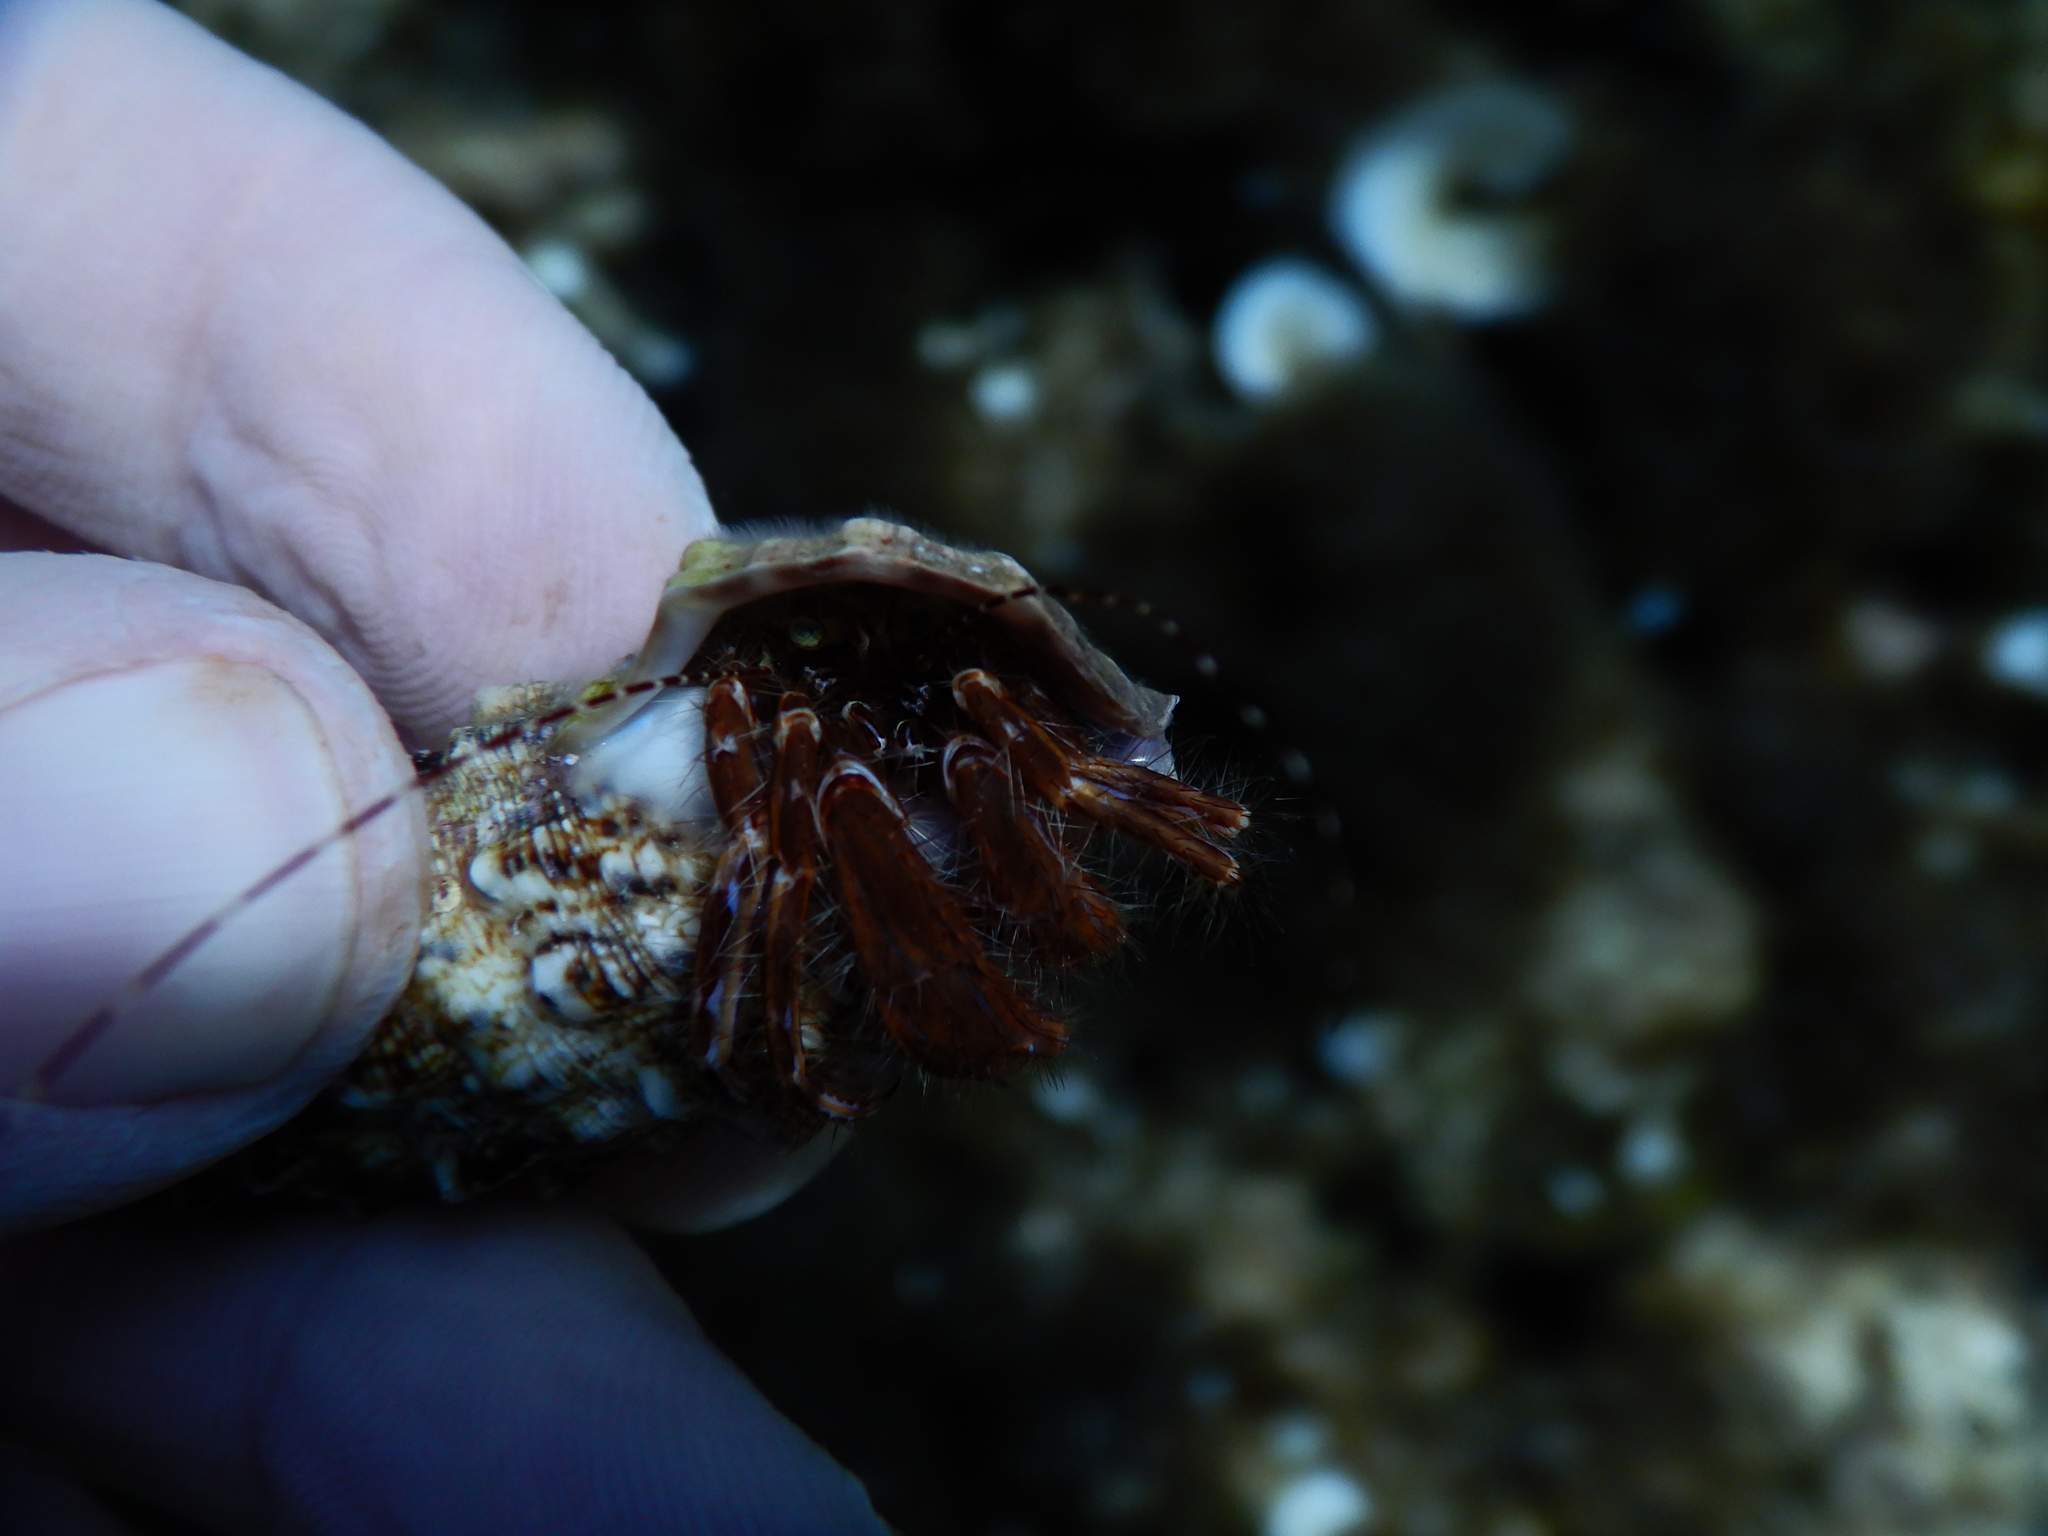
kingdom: Animalia
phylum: Arthropoda
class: Malacostraca
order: Decapoda
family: Paguridae
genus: Pagurus
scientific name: Pagurus anachoretus
